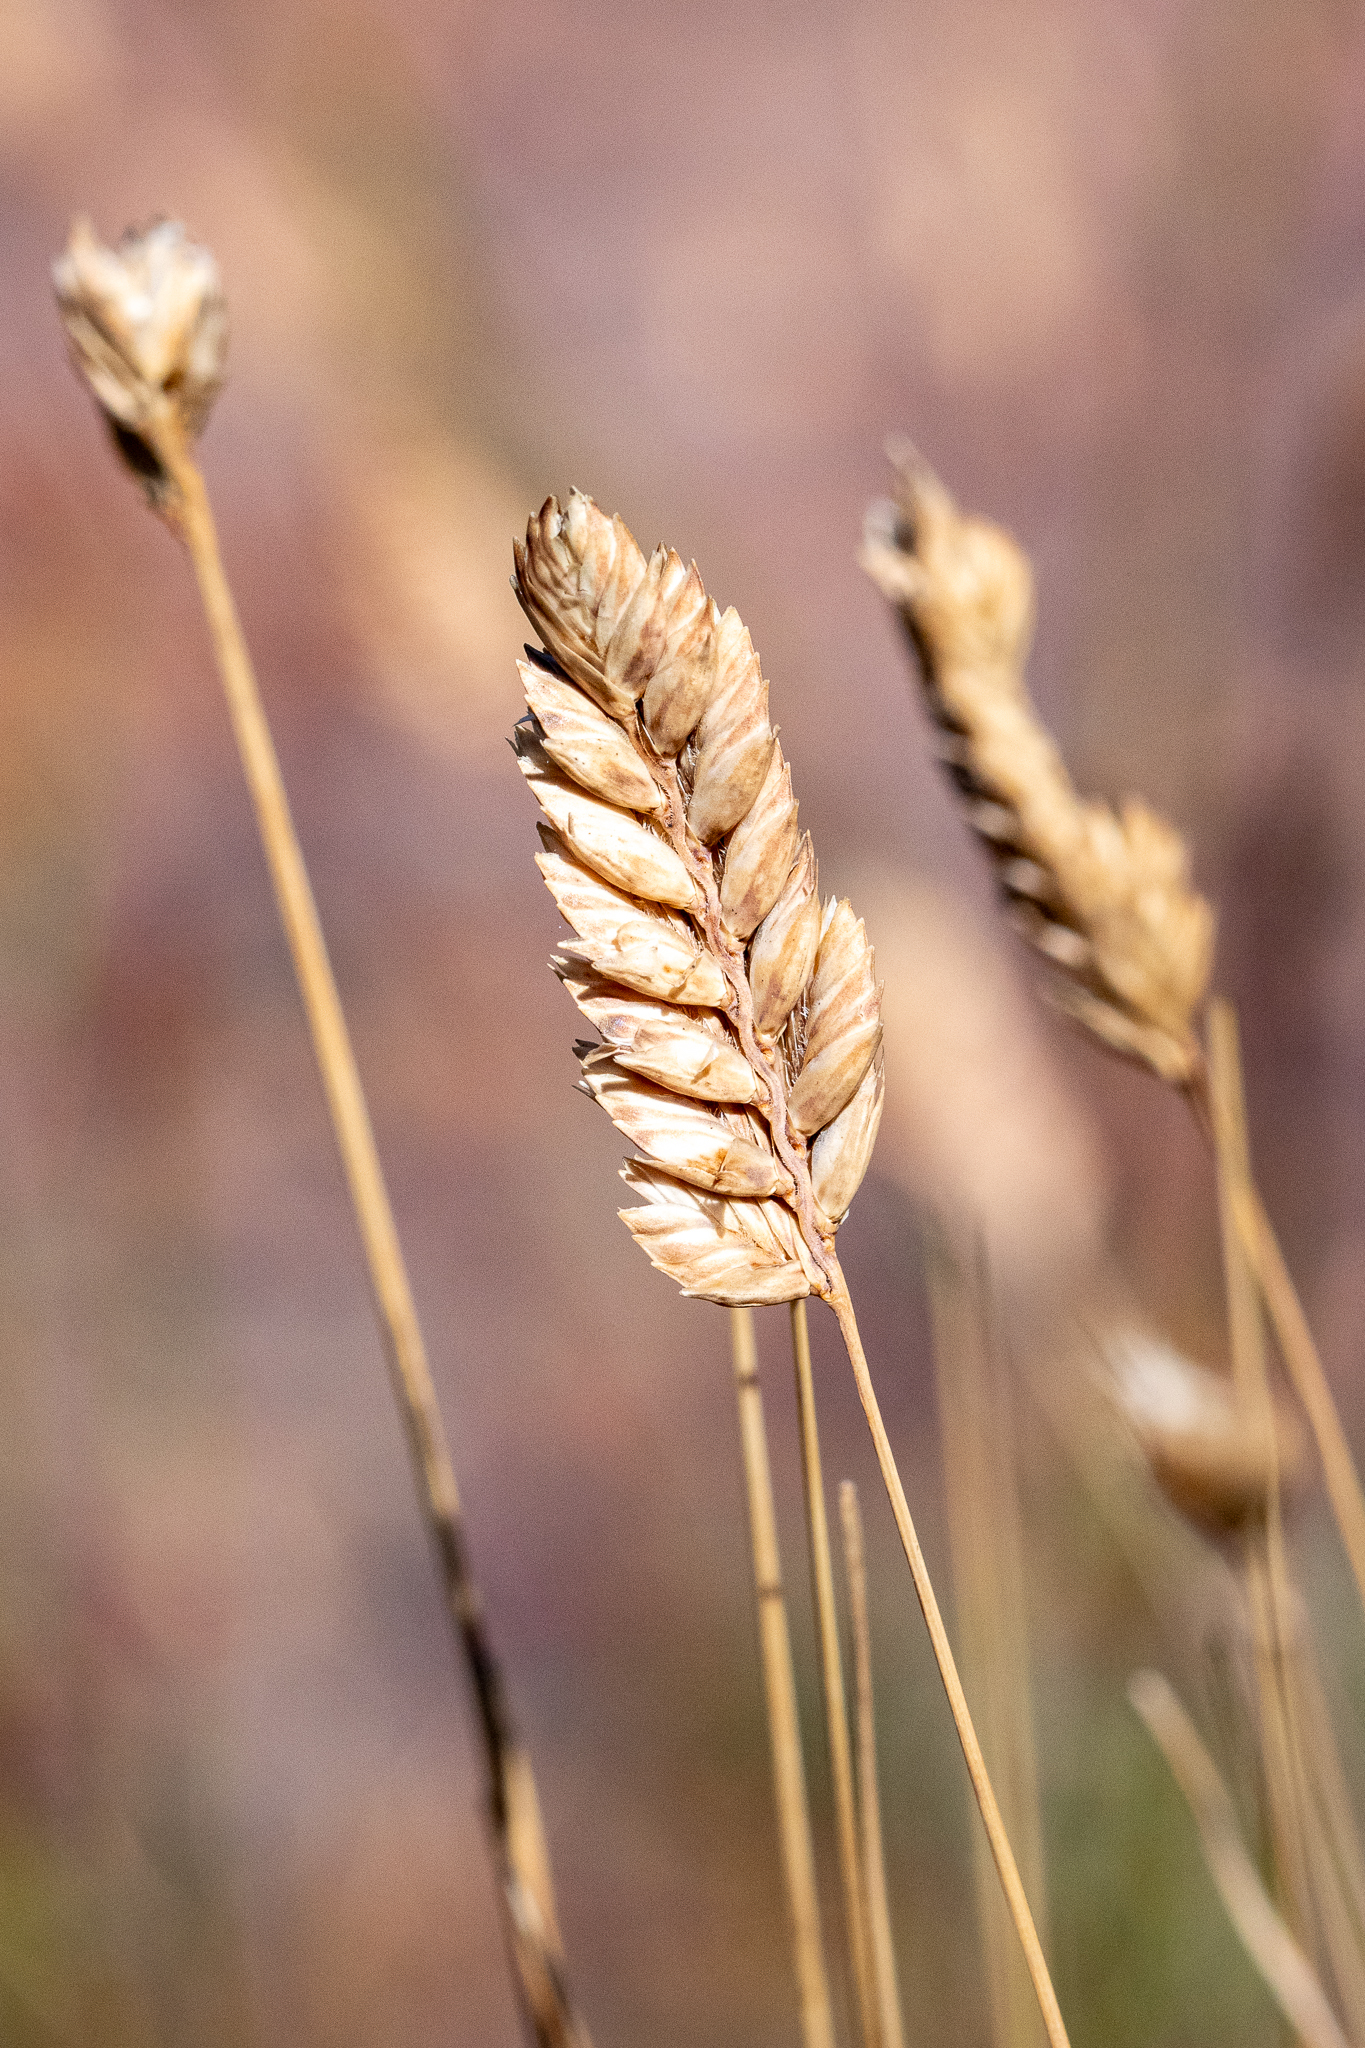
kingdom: Plantae
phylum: Tracheophyta
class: Liliopsida
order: Poales
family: Poaceae
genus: Tribolium
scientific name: Tribolium uniolae
